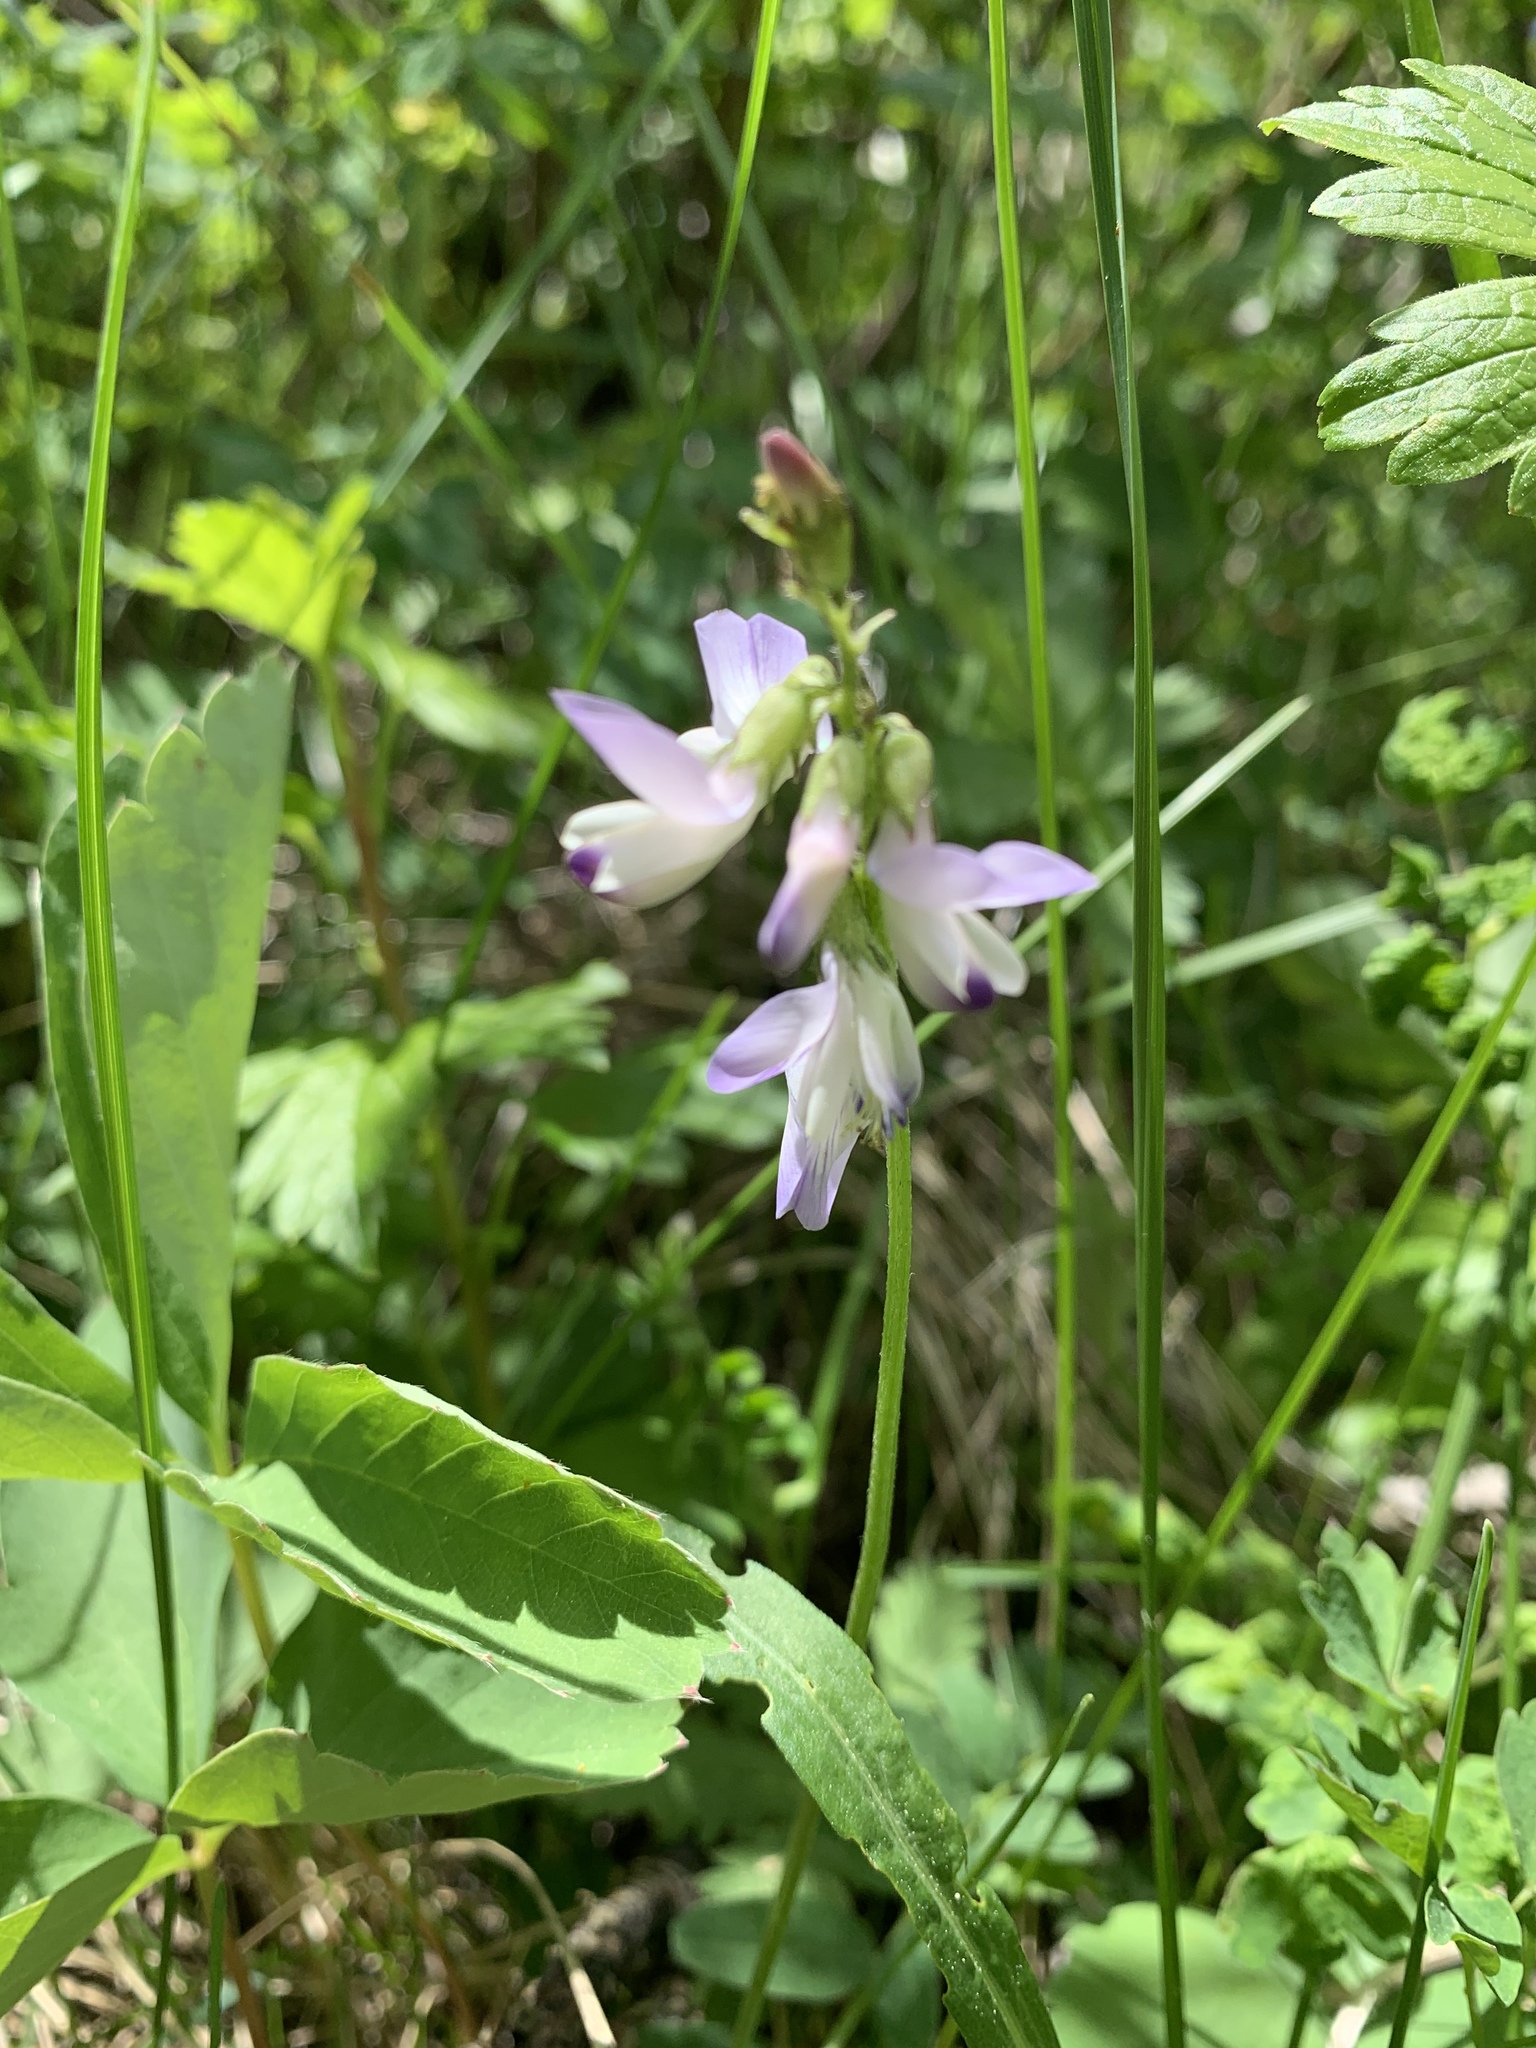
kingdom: Plantae
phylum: Tracheophyta
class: Magnoliopsida
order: Fabales
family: Fabaceae
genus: Astragalus
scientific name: Astragalus alpinus
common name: Alpine milk-vetch
